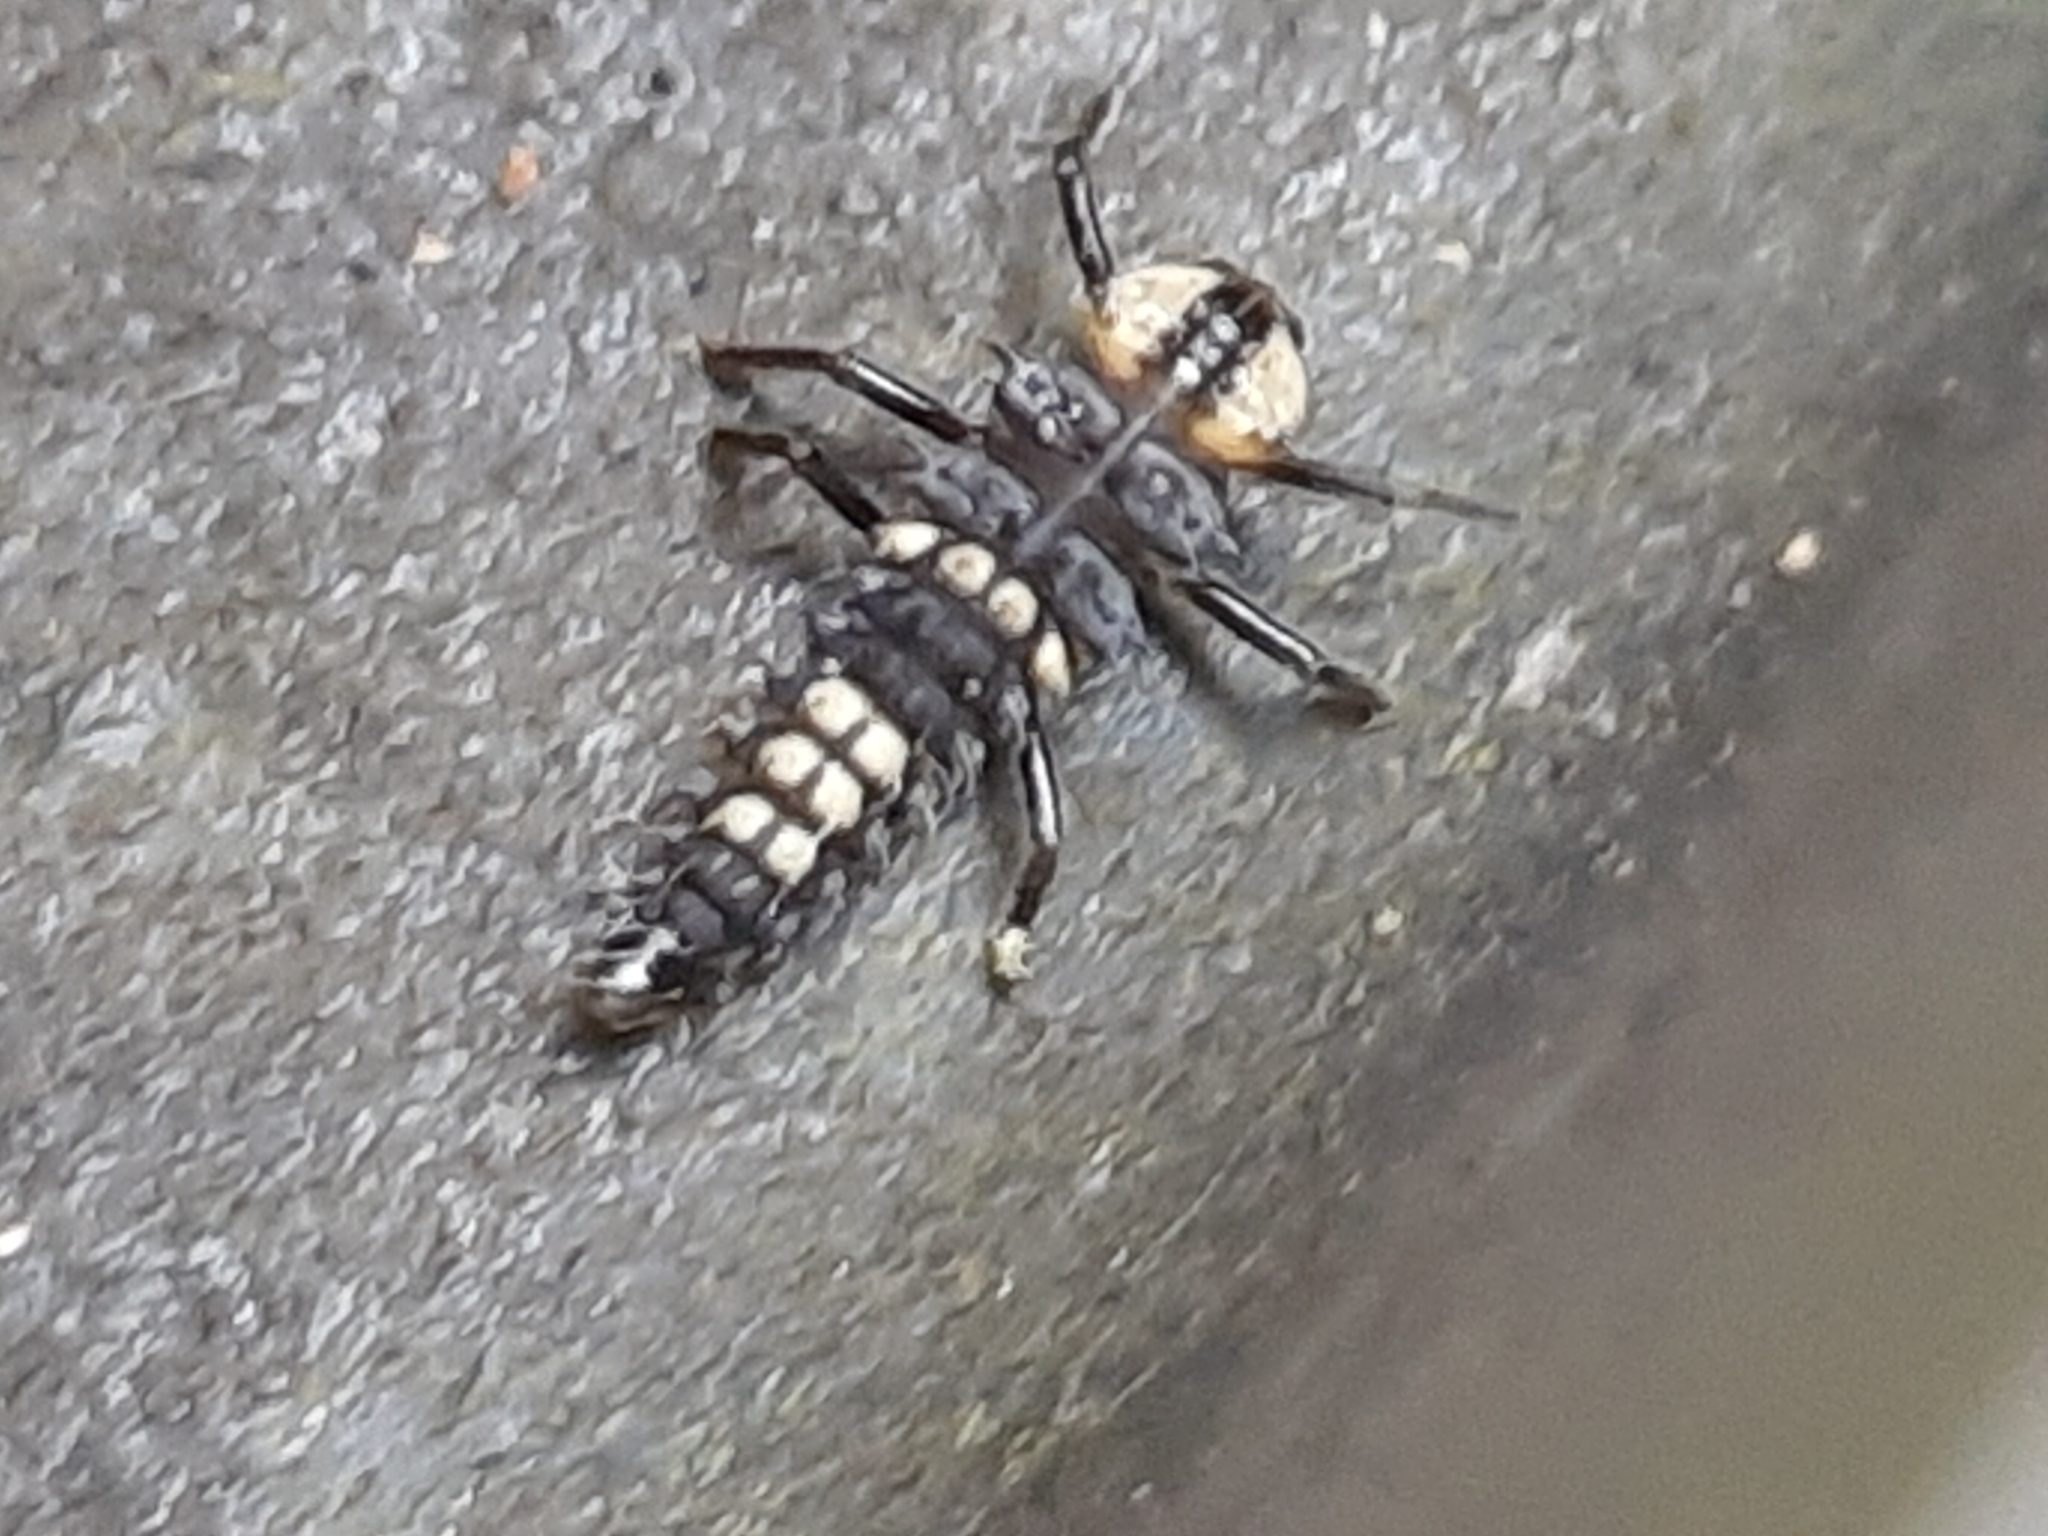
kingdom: Animalia
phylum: Arthropoda
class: Insecta
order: Coleoptera
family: Coccinellidae
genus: Harmonia
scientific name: Harmonia
